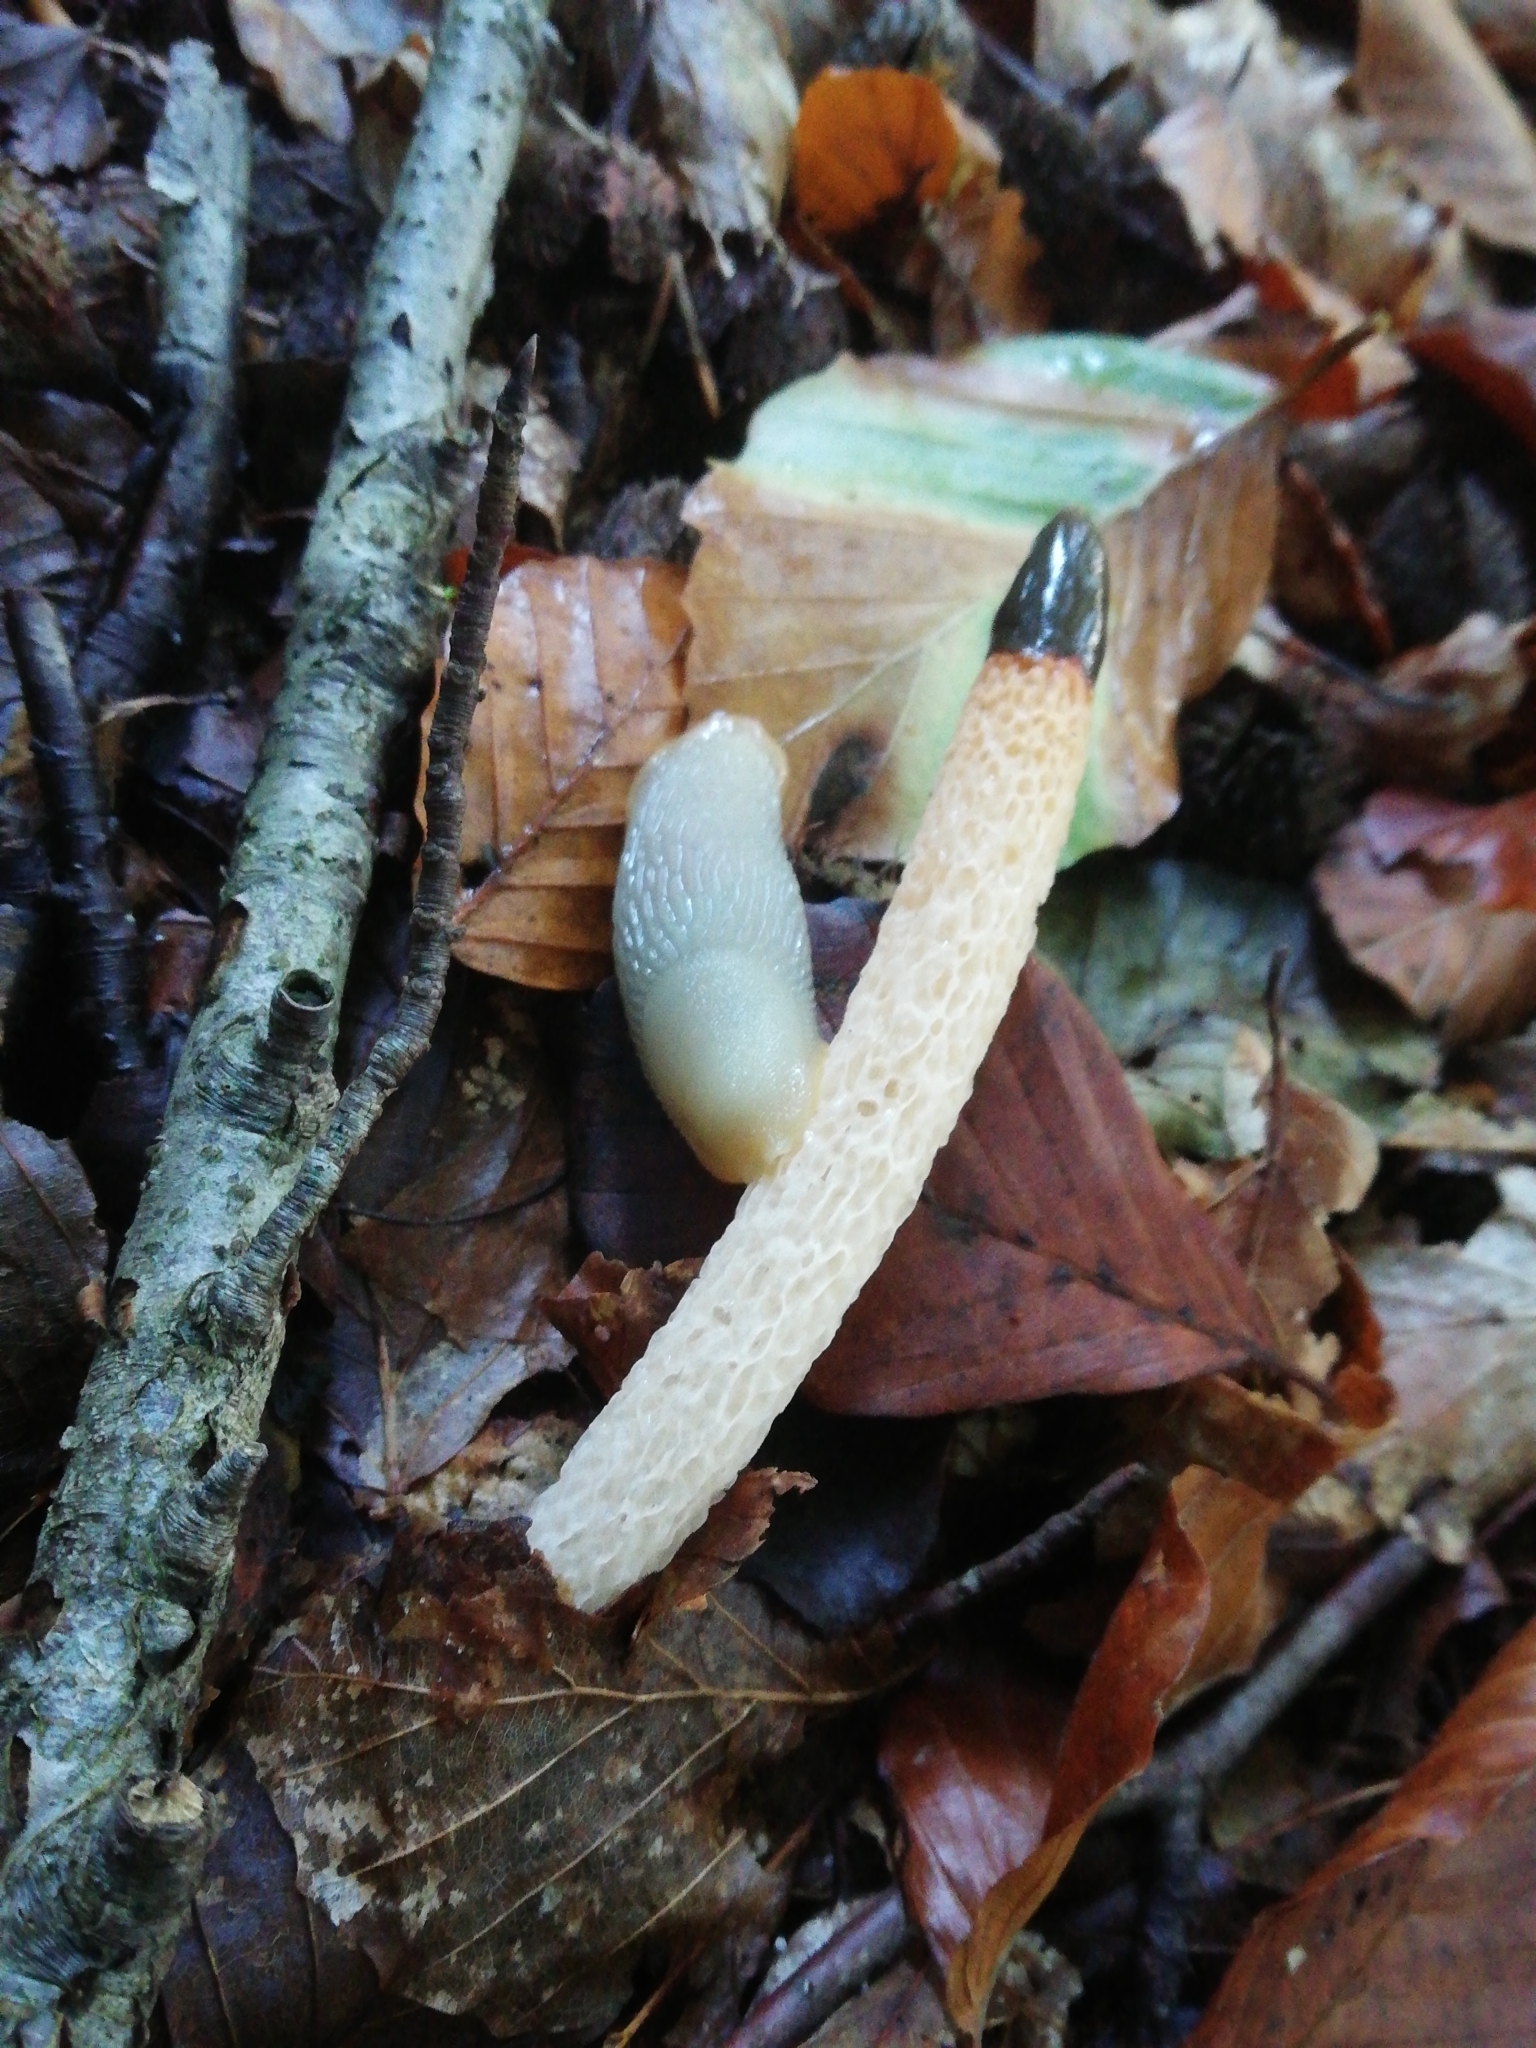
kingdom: Fungi
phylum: Basidiomycota
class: Agaricomycetes
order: Phallales
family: Phallaceae
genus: Mutinus
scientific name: Mutinus caninus
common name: Dog stinkhorn
